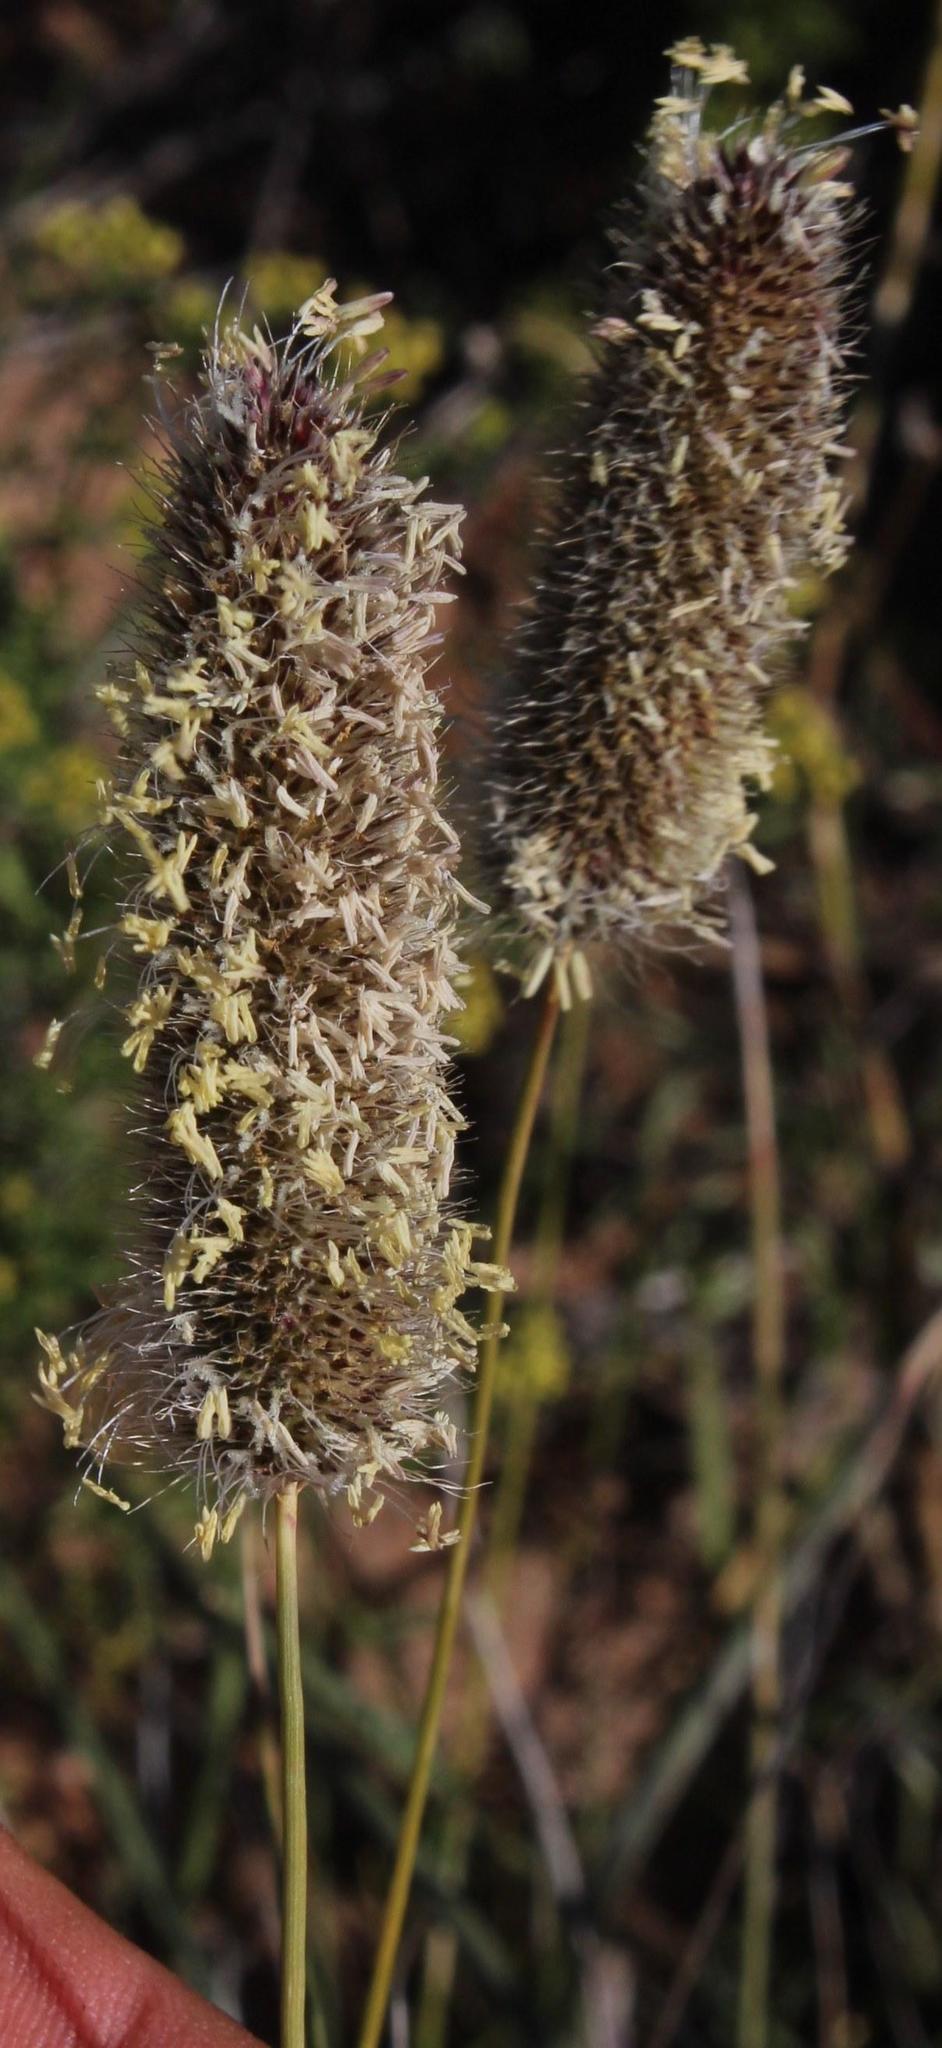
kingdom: Plantae
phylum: Tracheophyta
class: Liliopsida
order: Poales
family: Poaceae
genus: Fingerhuthia
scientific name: Fingerhuthia africana
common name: Zulu fescue
